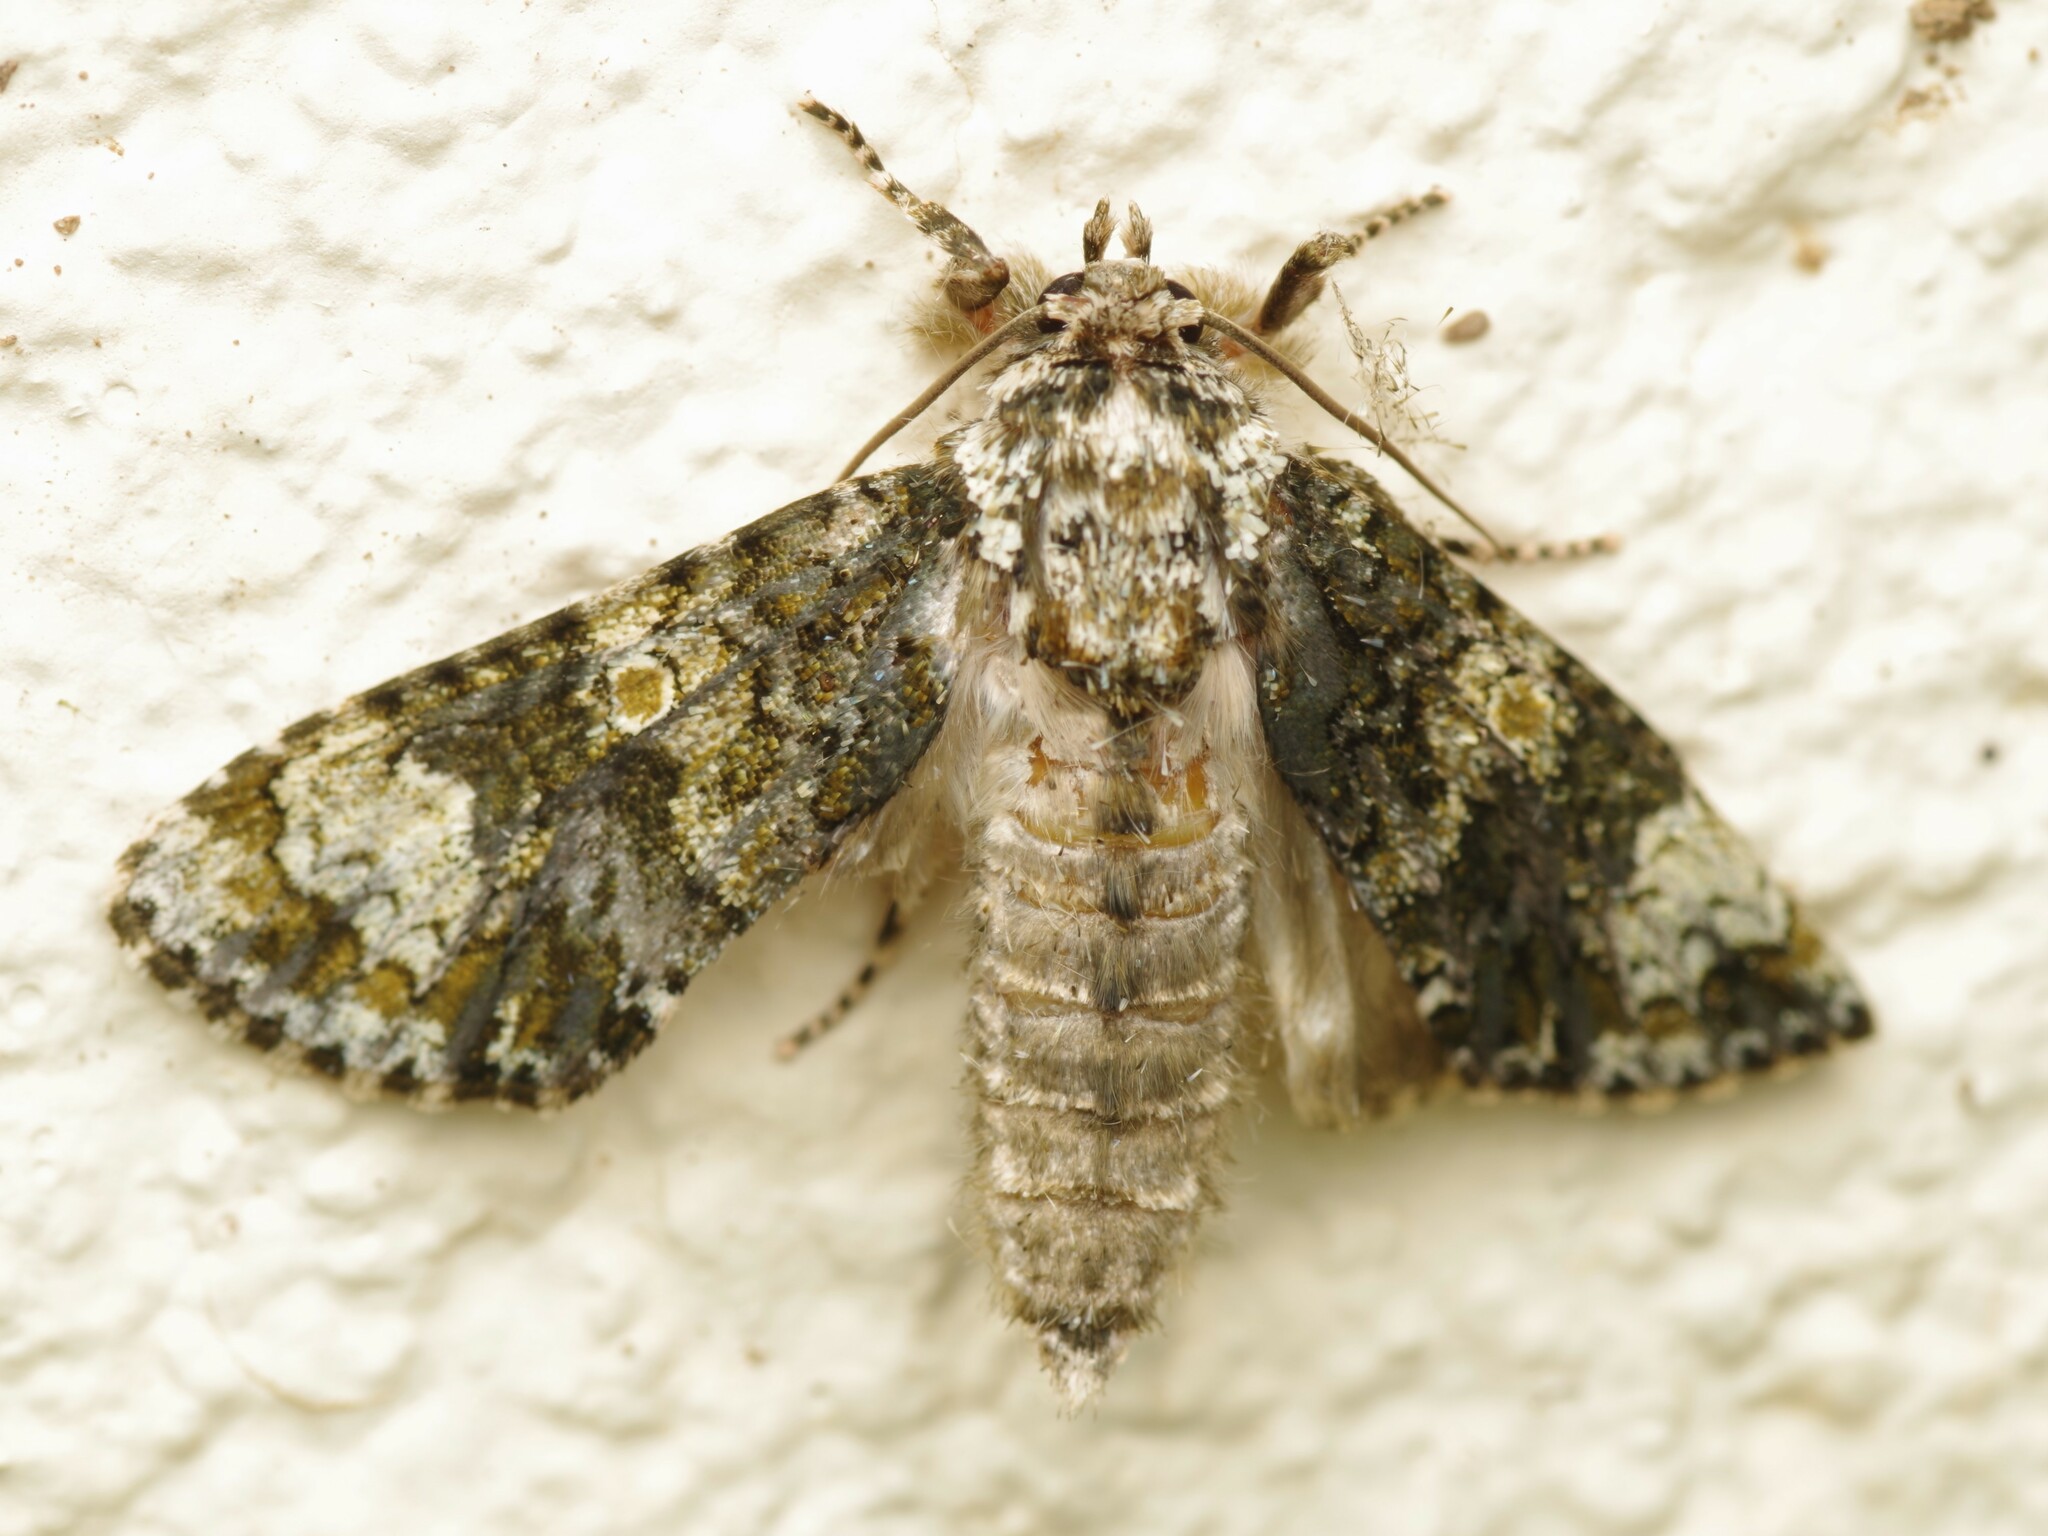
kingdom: Animalia
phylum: Arthropoda
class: Insecta
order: Lepidoptera
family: Noctuidae
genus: Craniophora
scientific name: Craniophora ligustri
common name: Coronet
